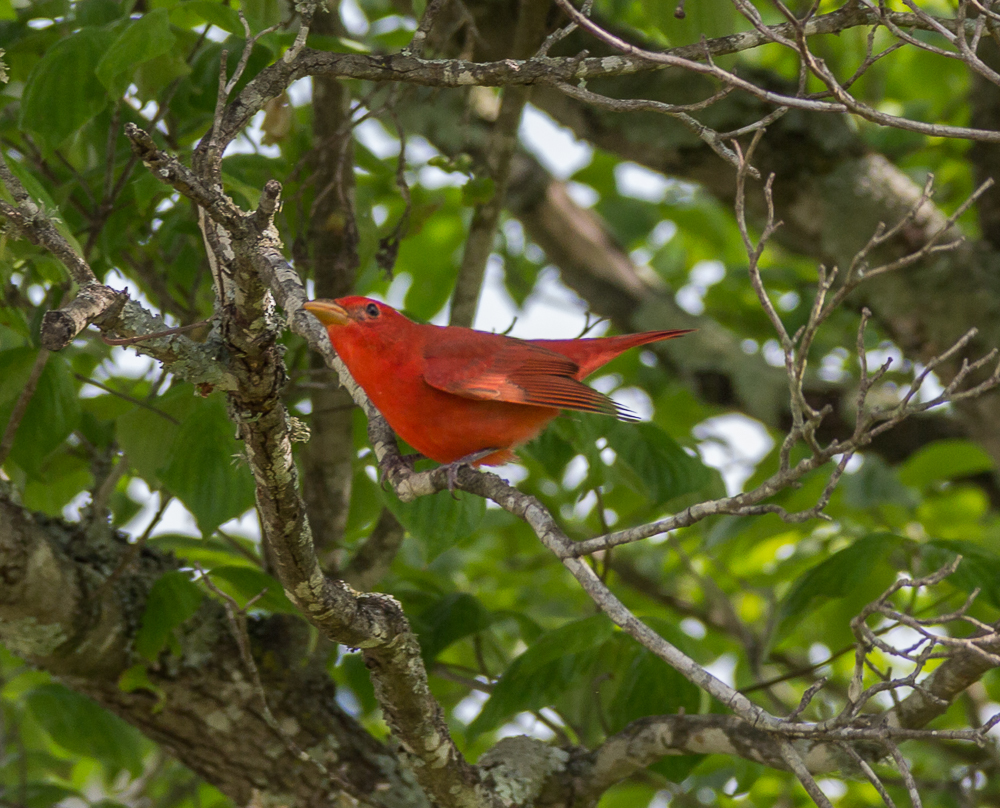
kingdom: Animalia
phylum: Chordata
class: Aves
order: Passeriformes
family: Cardinalidae
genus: Piranga
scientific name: Piranga rubra
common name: Summer tanager
